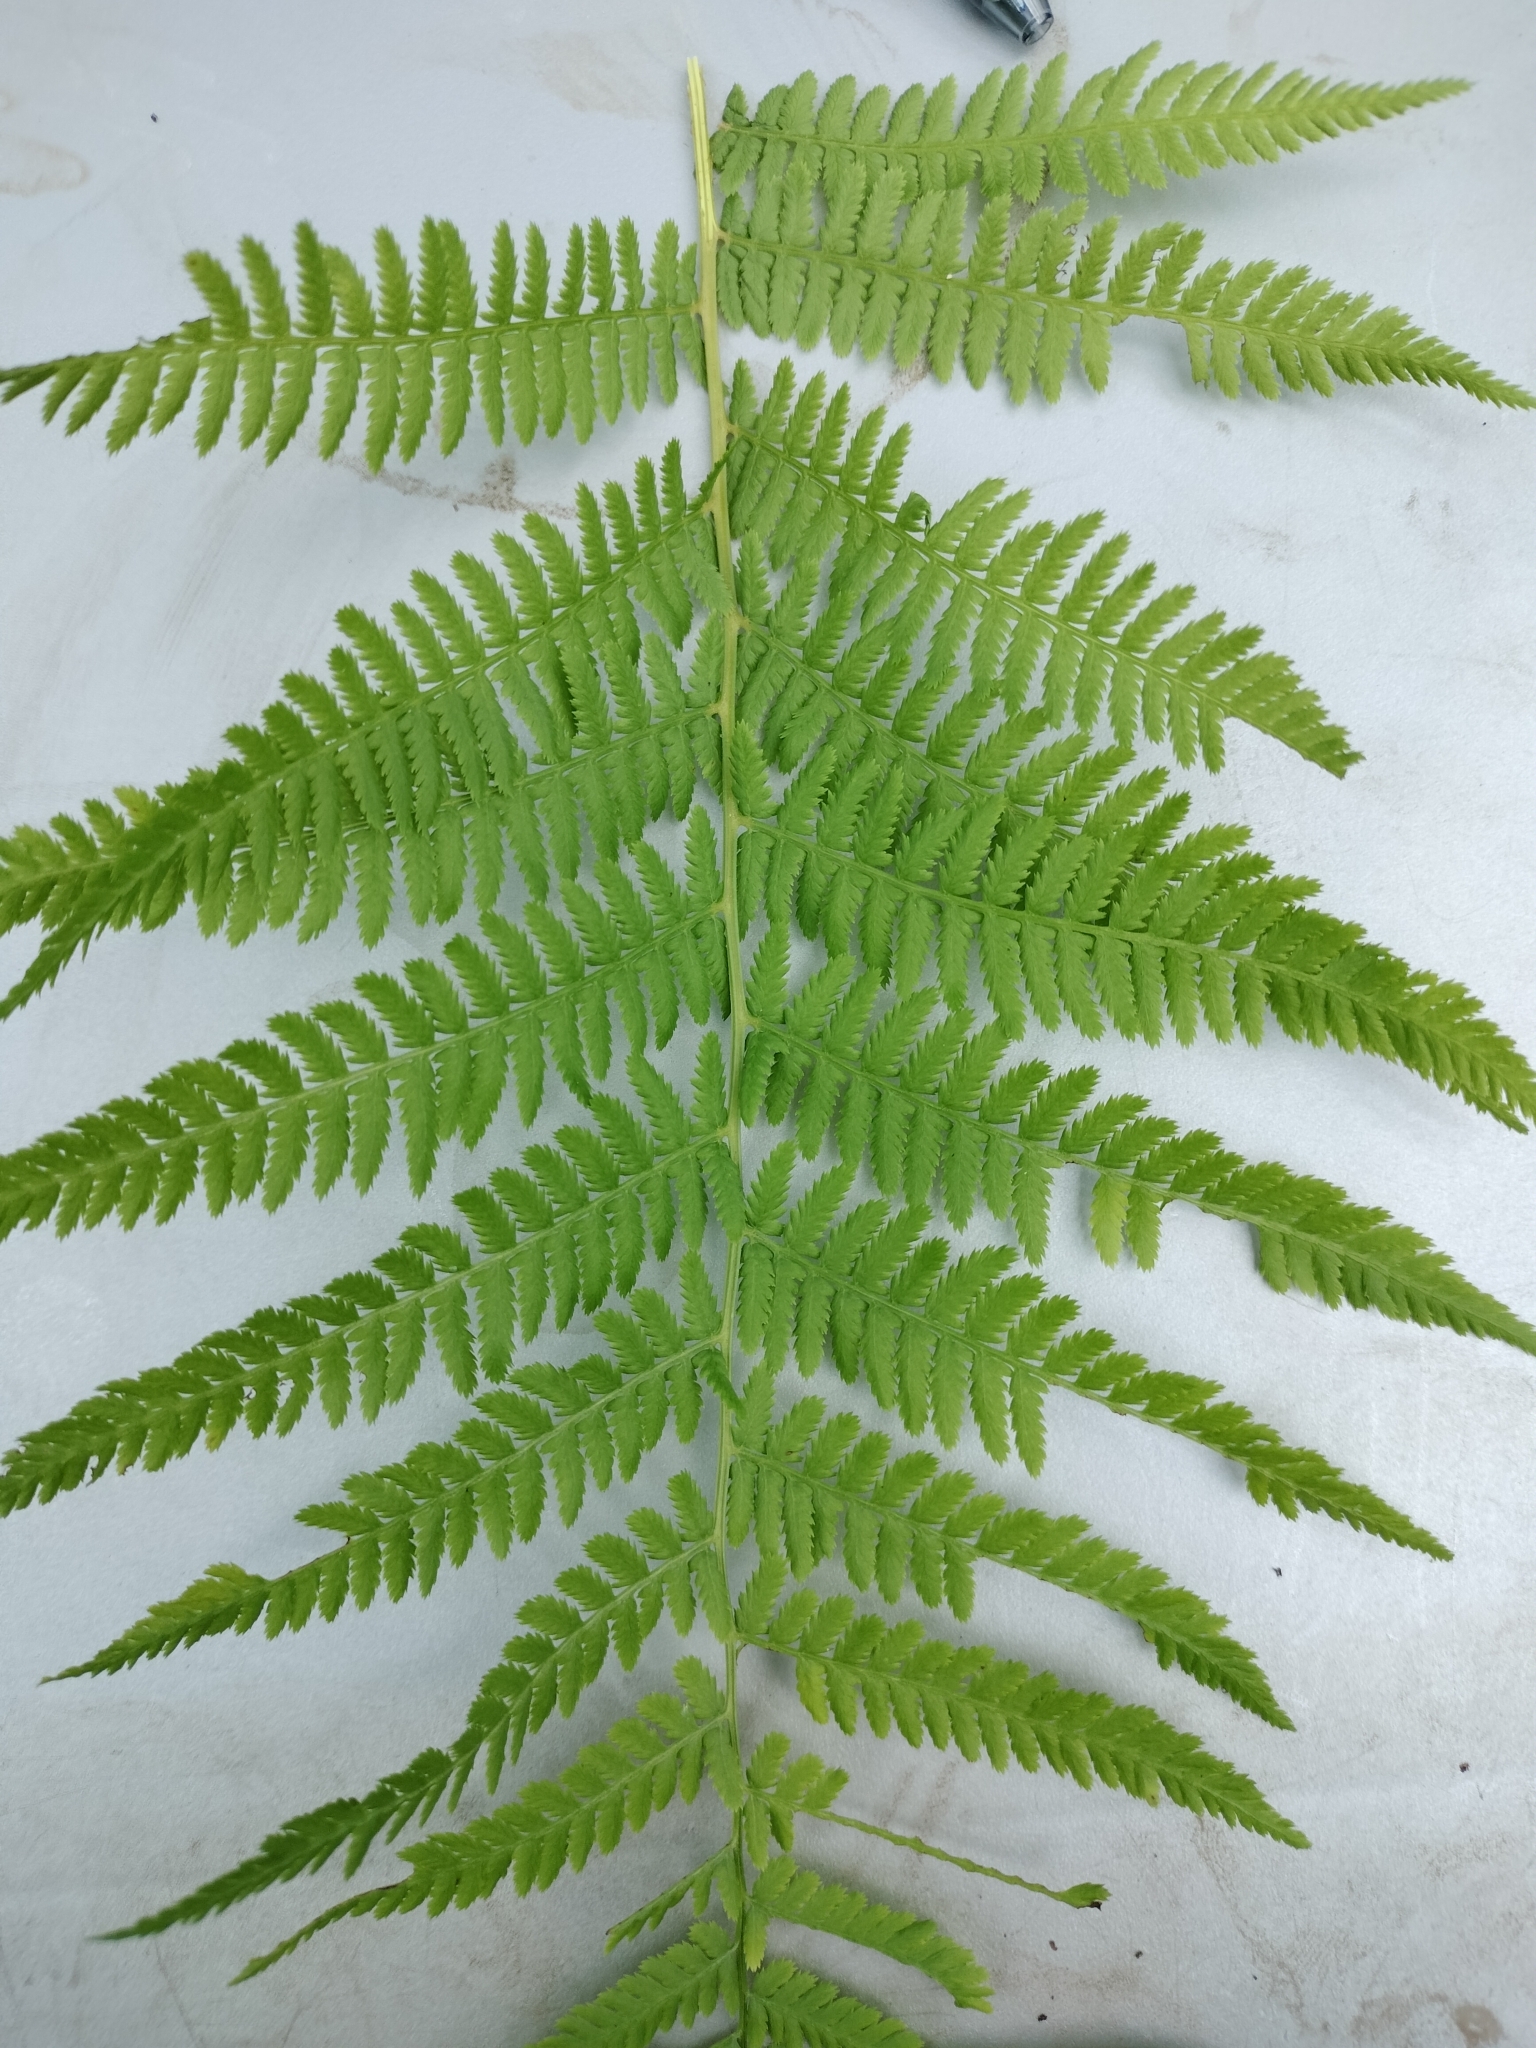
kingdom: Plantae
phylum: Tracheophyta
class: Polypodiopsida
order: Polypodiales
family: Athyriaceae
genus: Athyrium
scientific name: Athyrium angustum
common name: Northern lady fern
